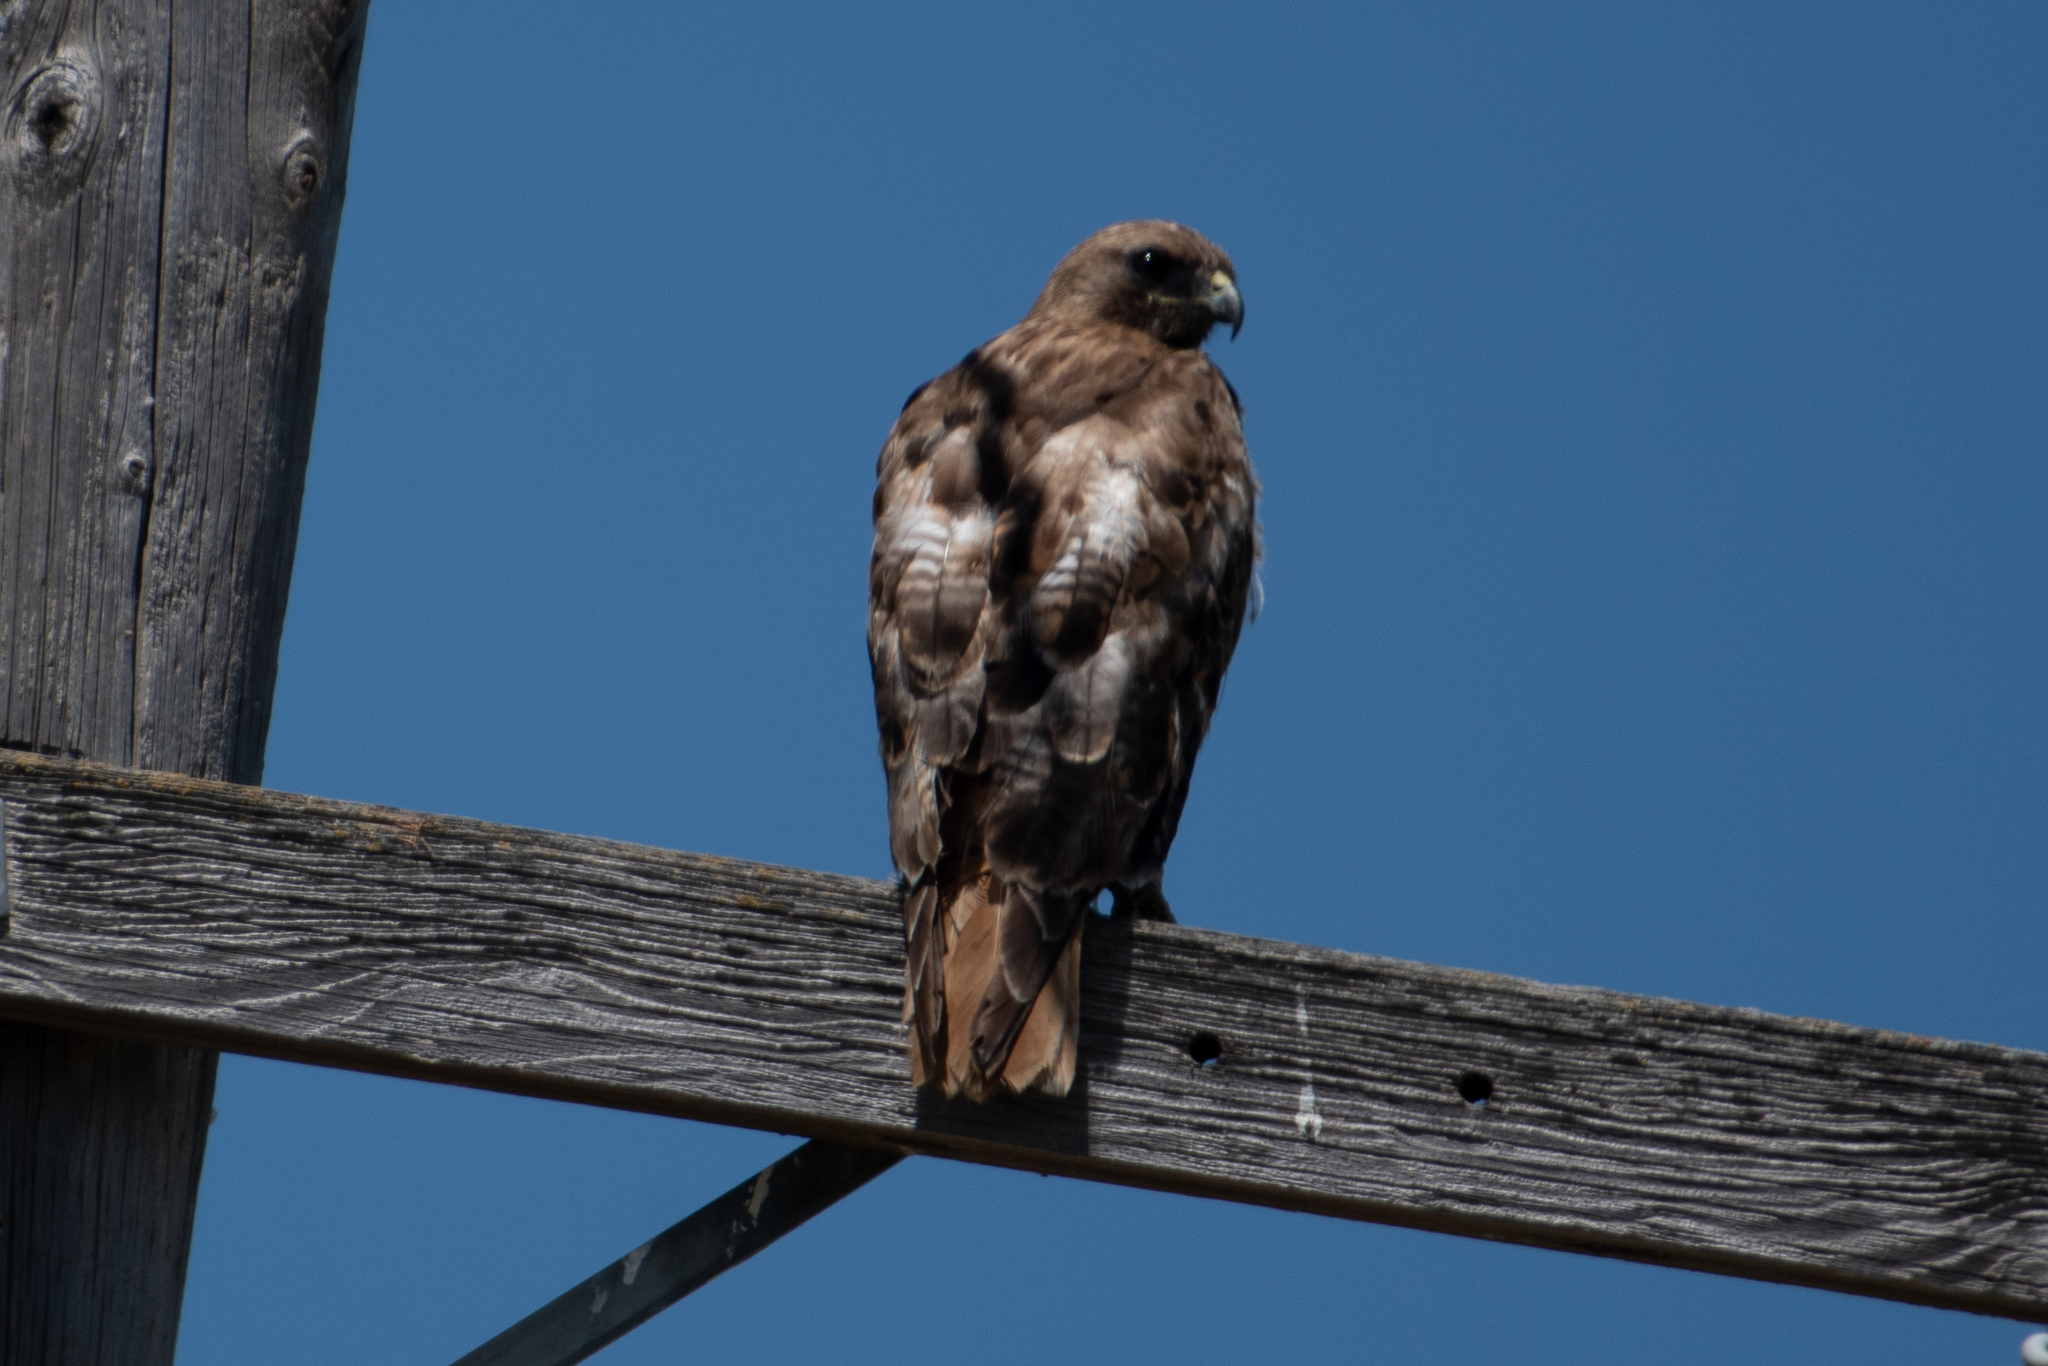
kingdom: Animalia
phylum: Chordata
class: Aves
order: Accipitriformes
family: Accipitridae
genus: Buteo
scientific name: Buteo jamaicensis
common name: Red-tailed hawk
